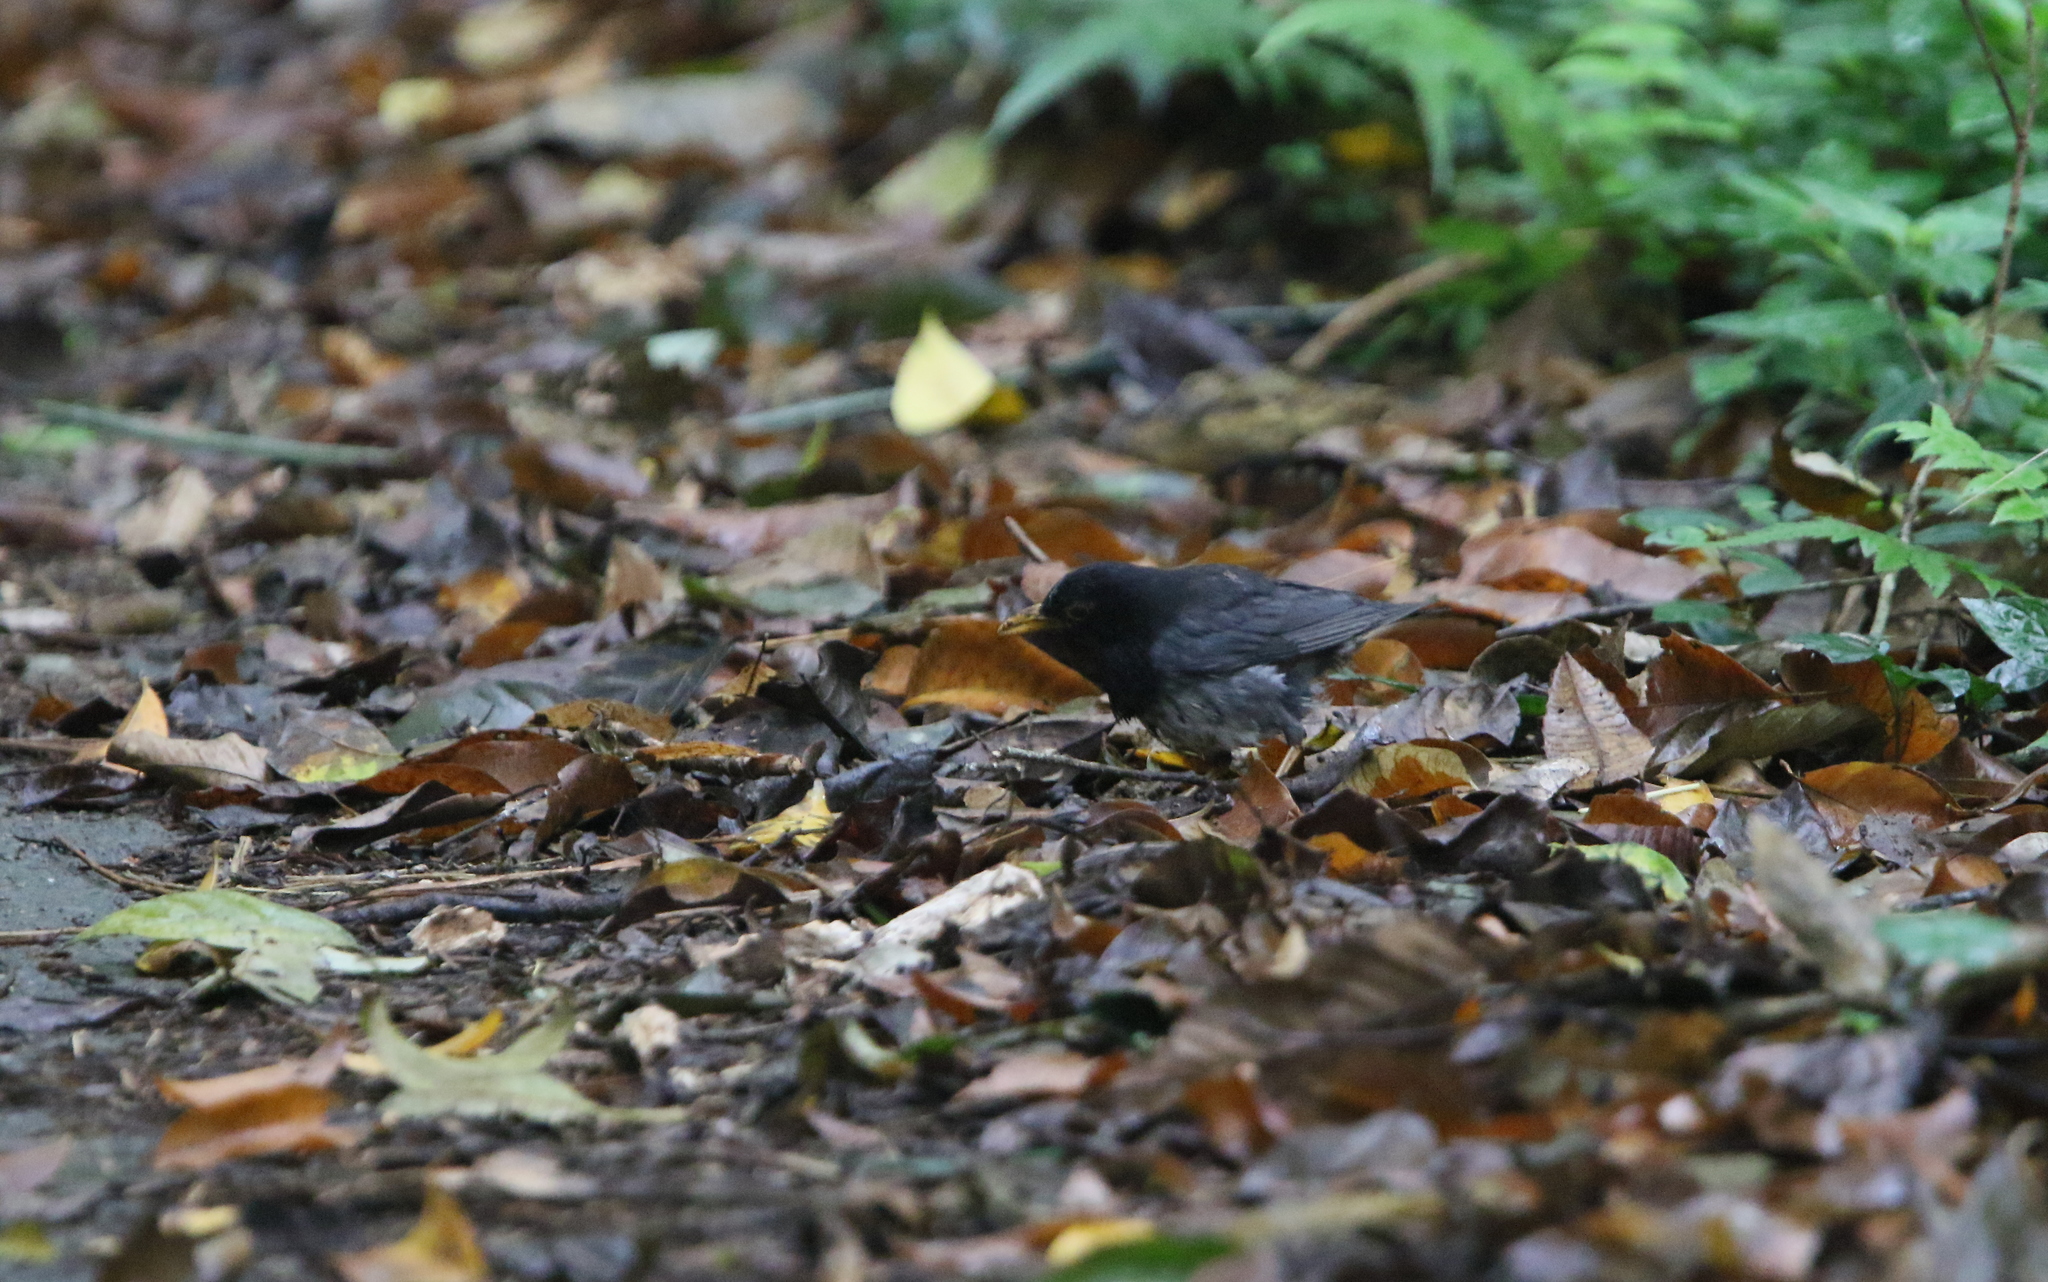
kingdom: Animalia
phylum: Chordata
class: Aves
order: Passeriformes
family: Turdidae
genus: Turdus
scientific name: Turdus cardis
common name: Japanese thrush
